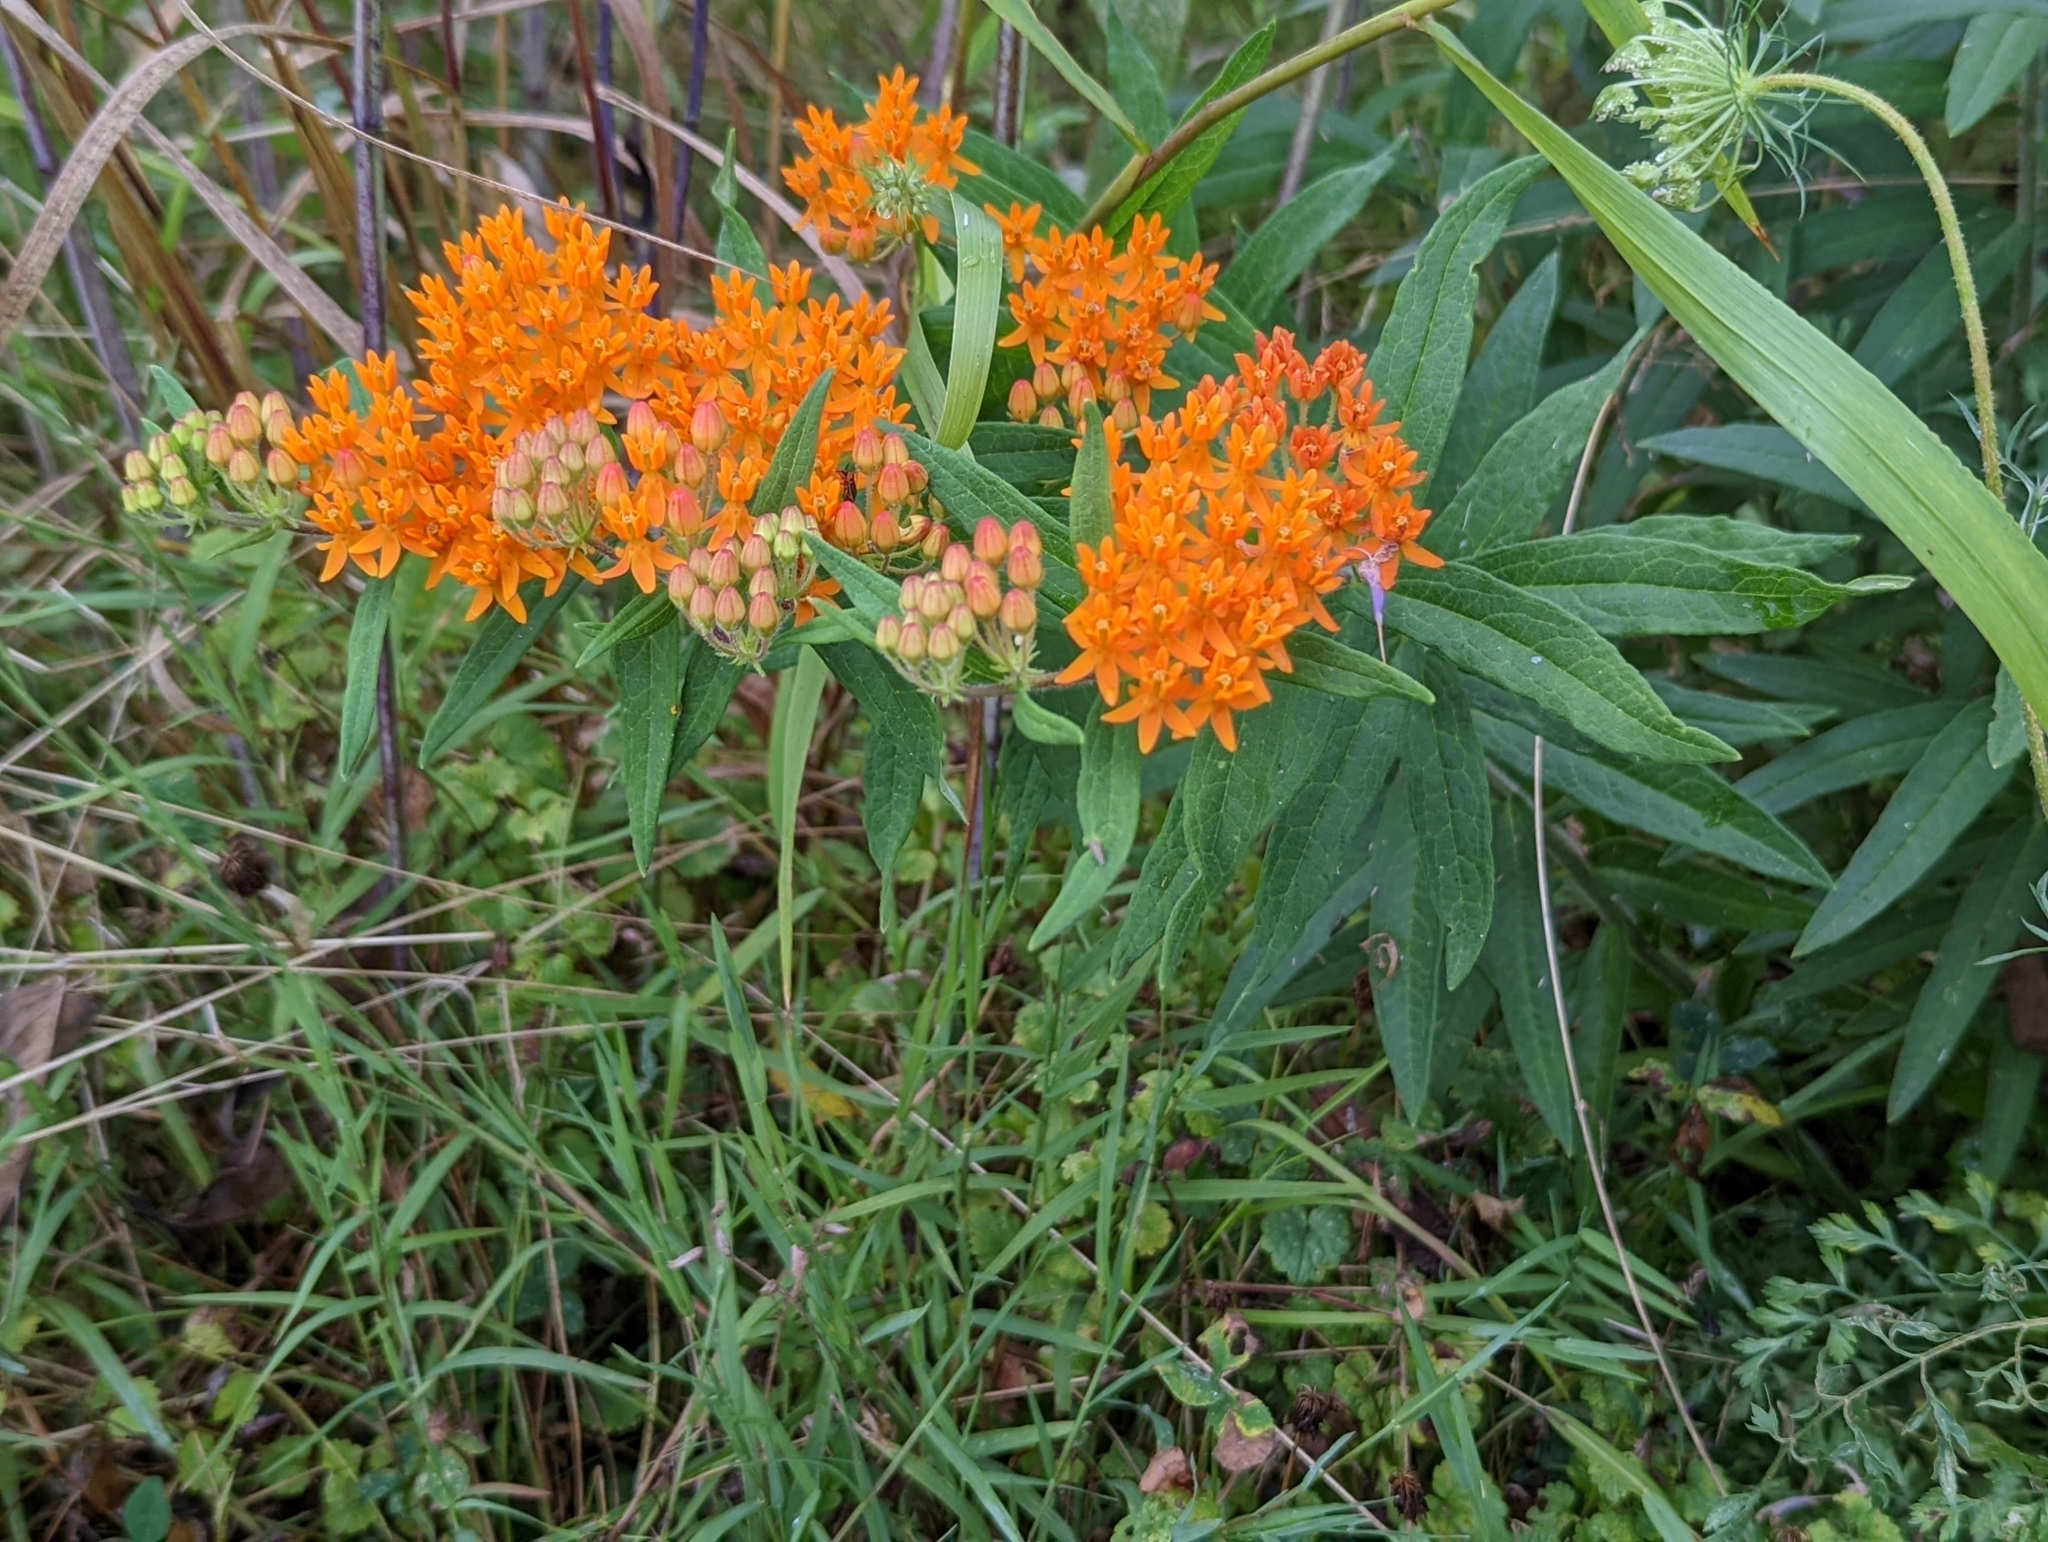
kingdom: Plantae
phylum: Tracheophyta
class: Magnoliopsida
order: Gentianales
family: Apocynaceae
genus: Asclepias
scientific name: Asclepias tuberosa
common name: Butterfly milkweed
